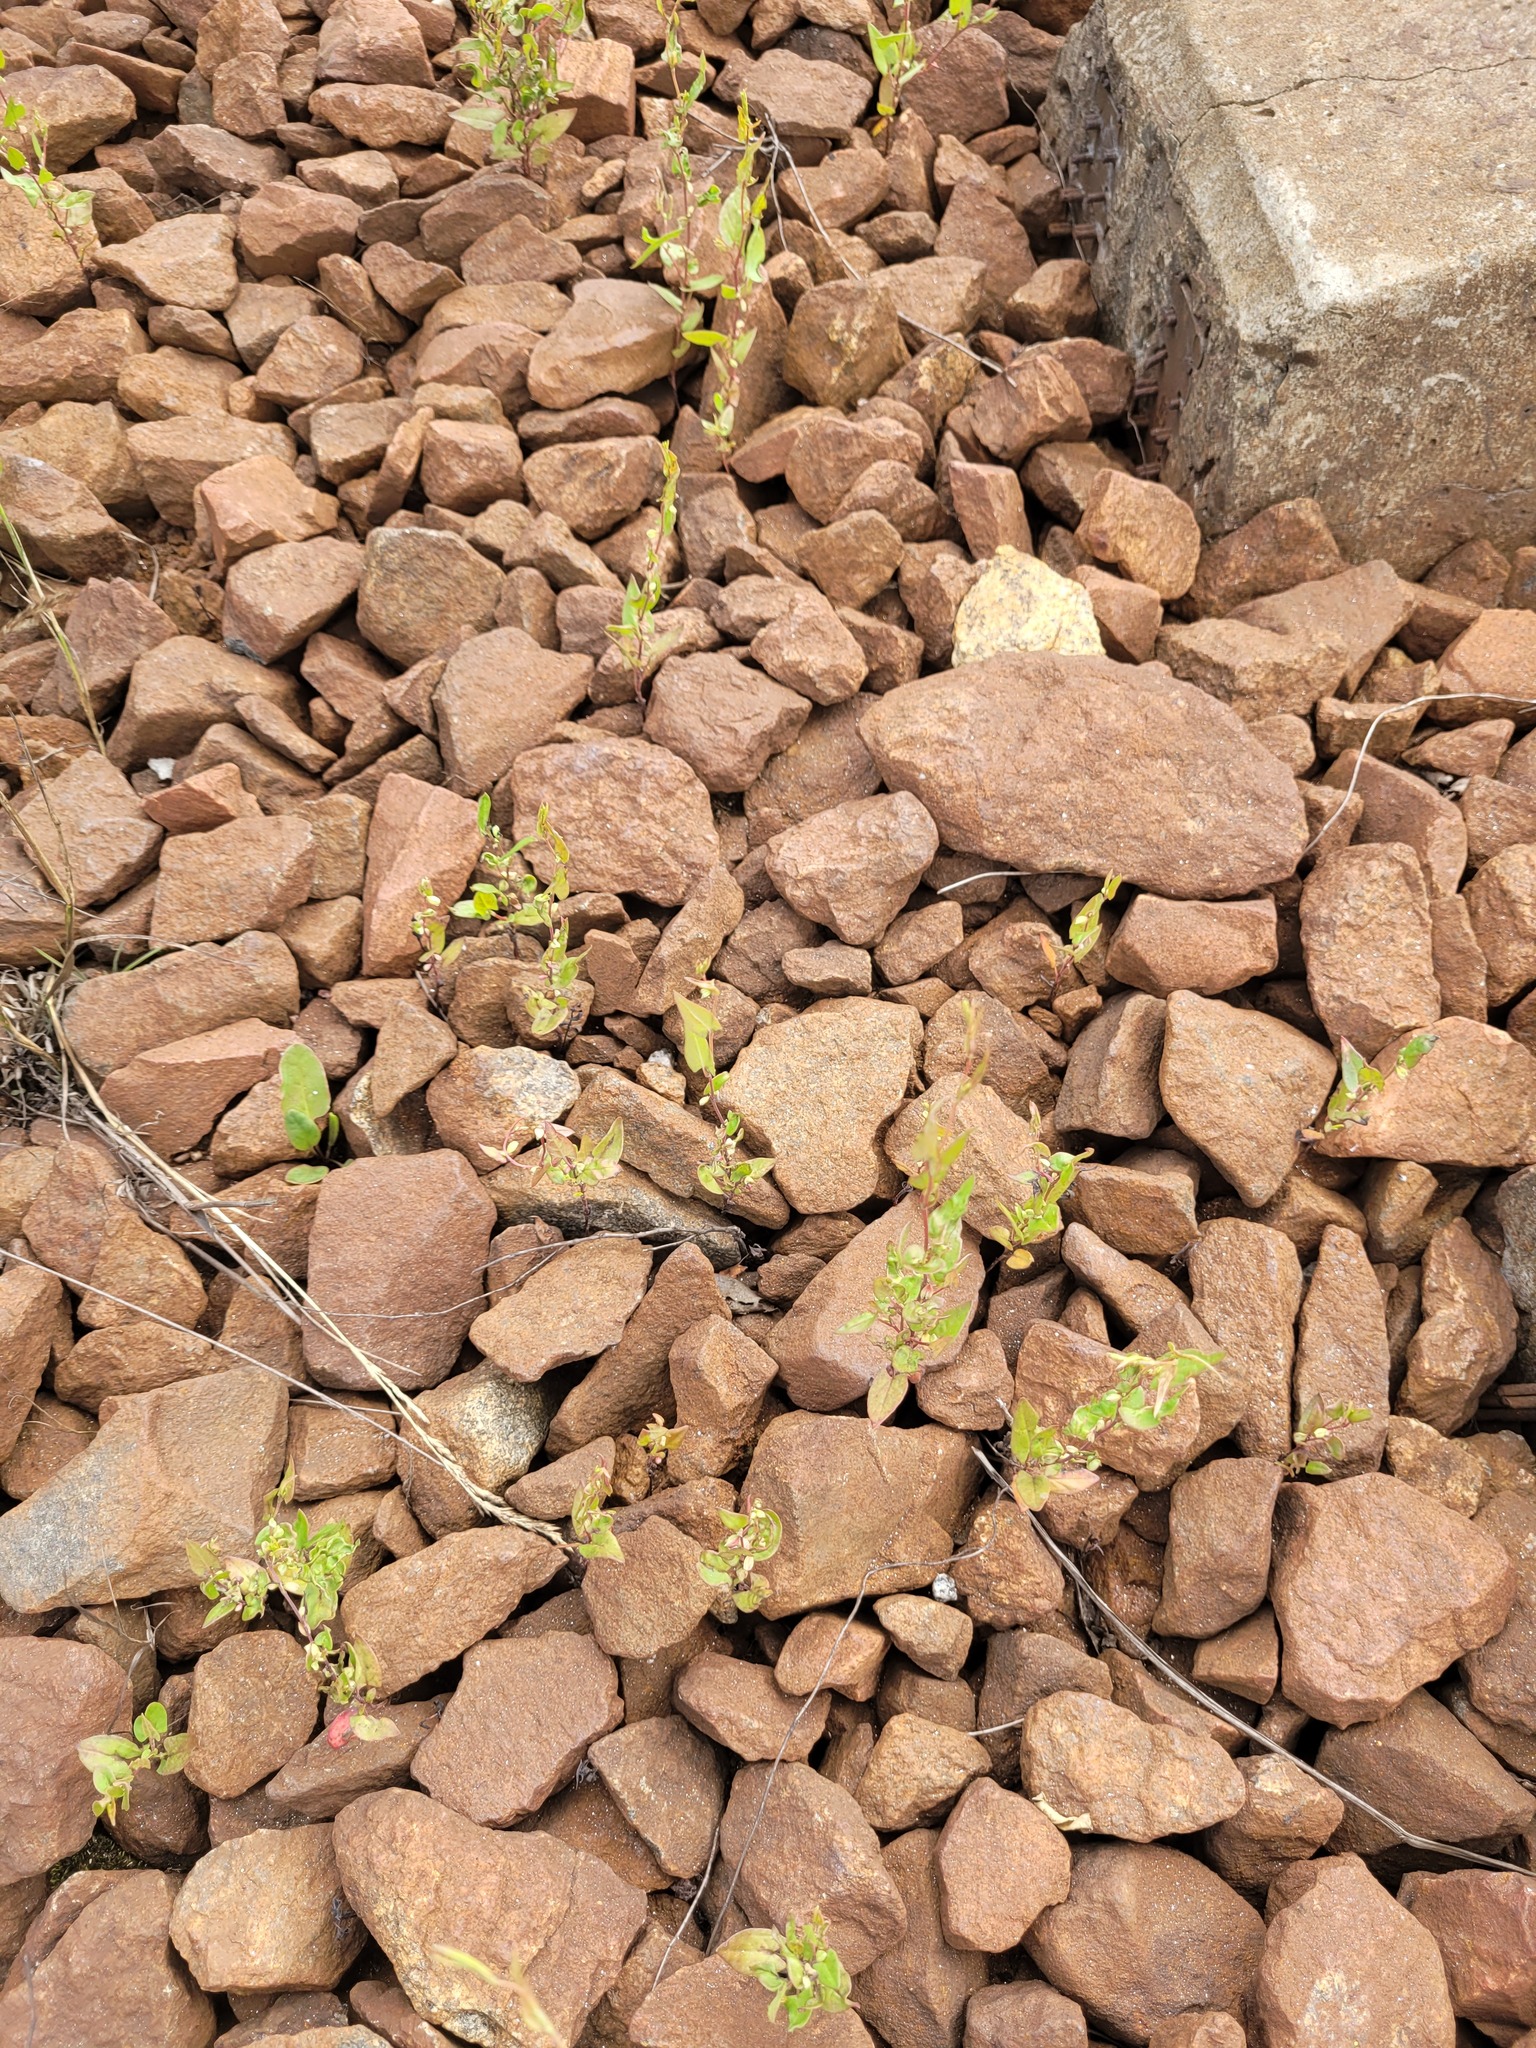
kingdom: Plantae
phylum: Tracheophyta
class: Magnoliopsida
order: Caryophyllales
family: Polygonaceae
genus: Fallopia
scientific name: Fallopia convolvulus
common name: Black bindweed
